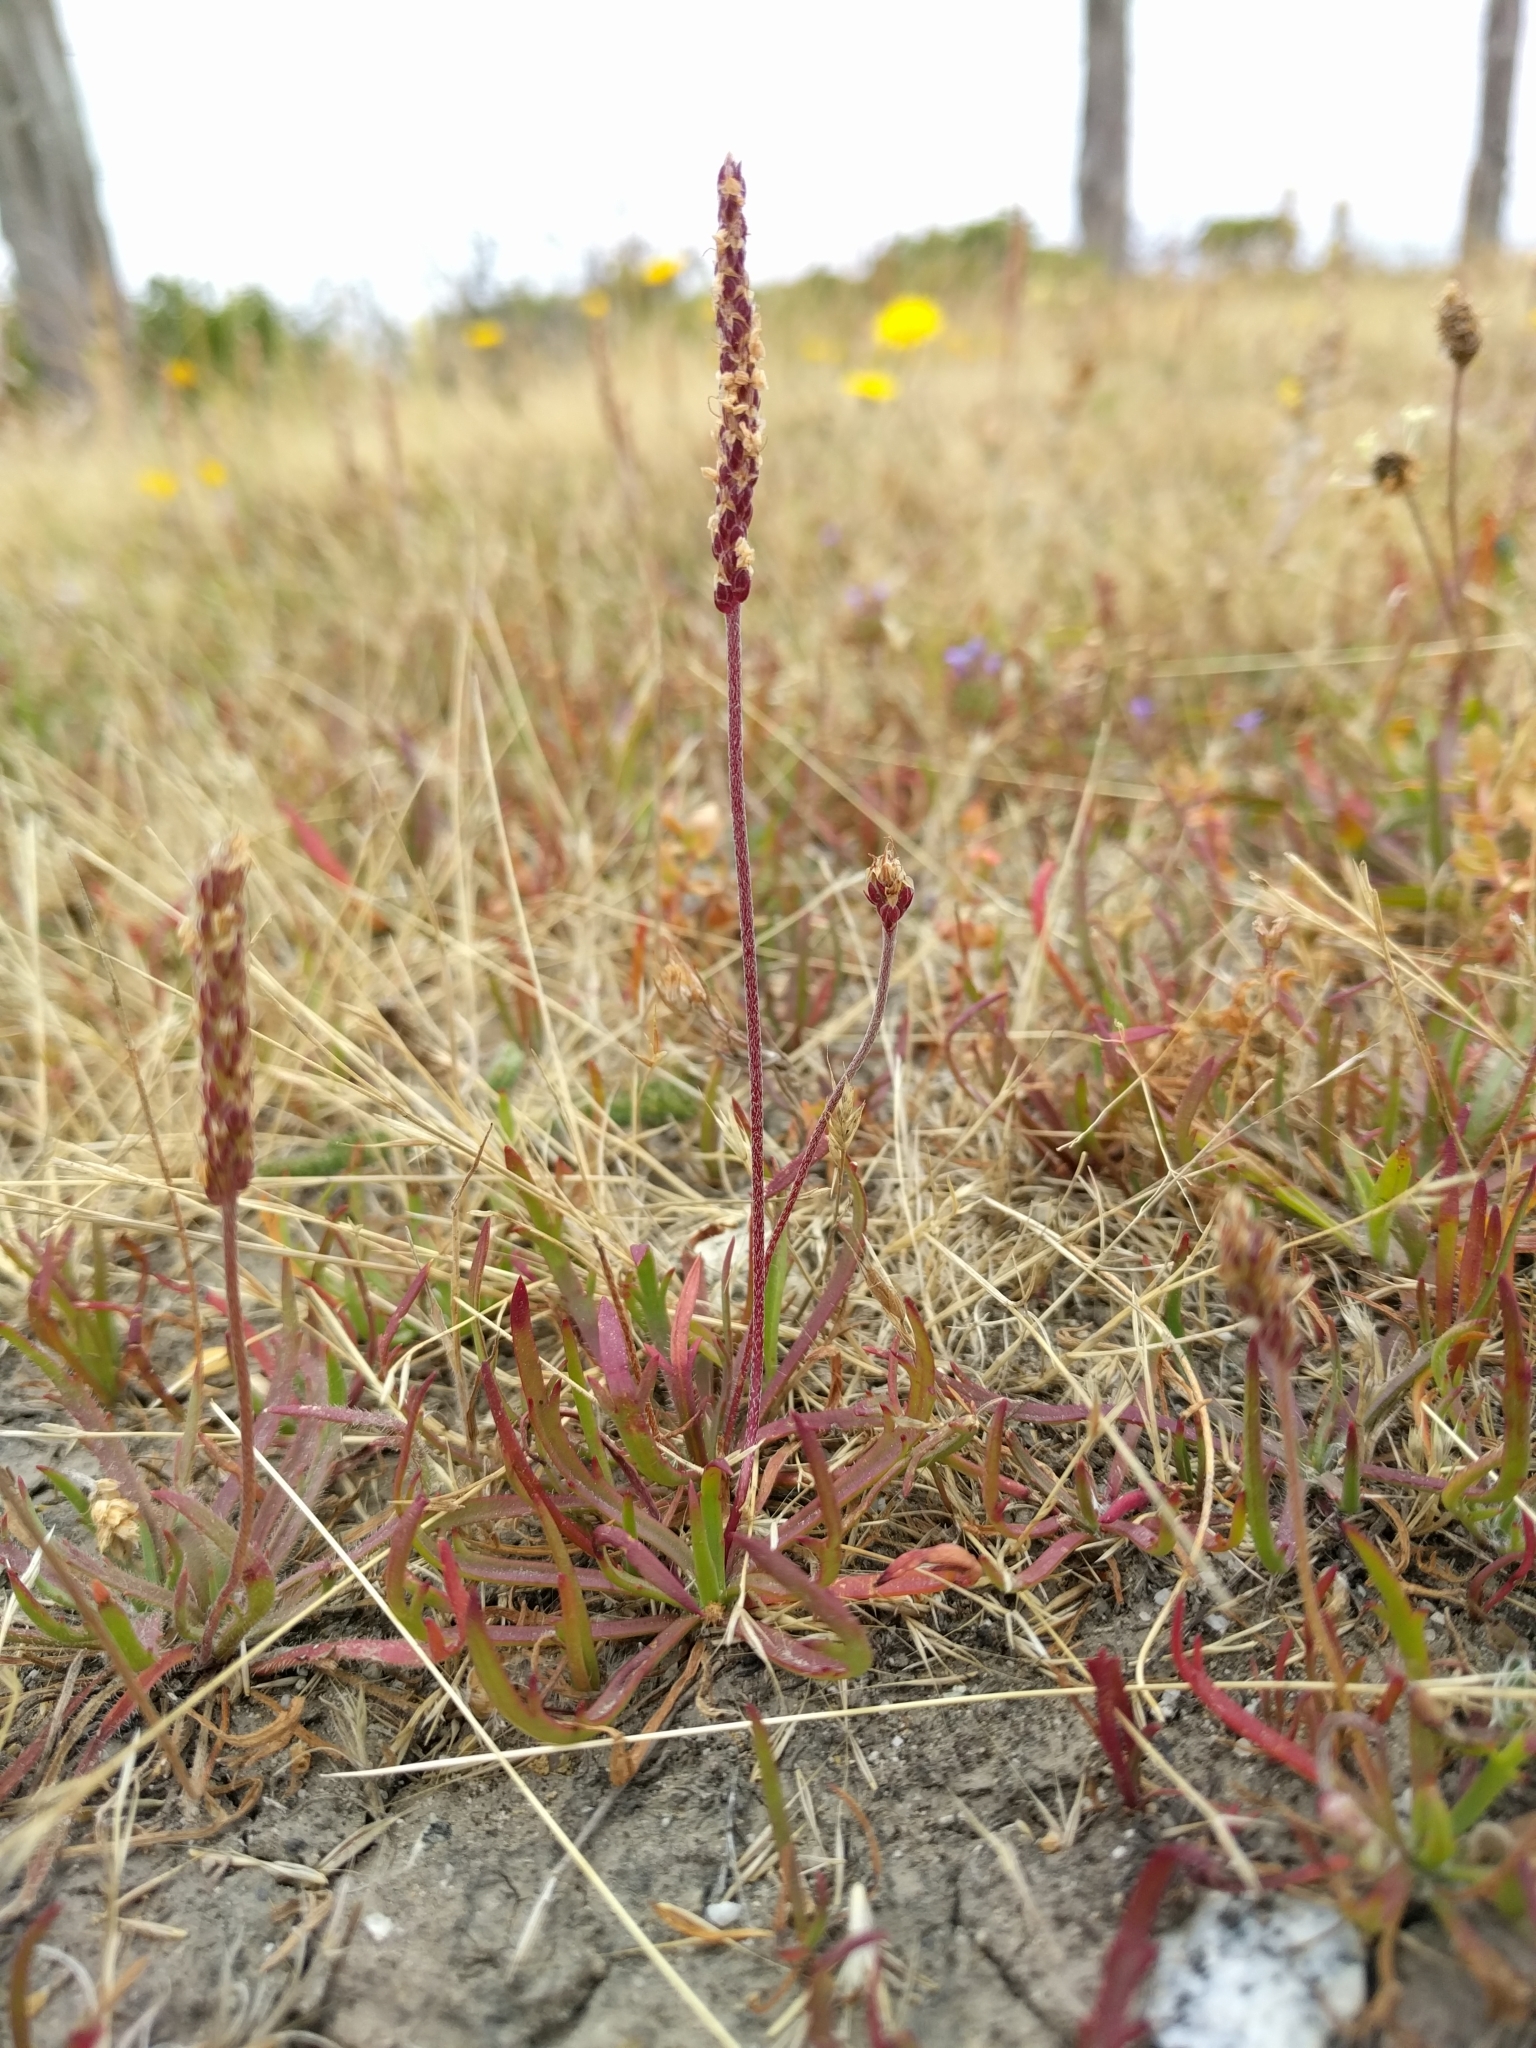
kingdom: Plantae
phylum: Tracheophyta
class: Magnoliopsida
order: Lamiales
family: Plantaginaceae
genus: Plantago
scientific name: Plantago coronopus
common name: Buck's-horn plantain
